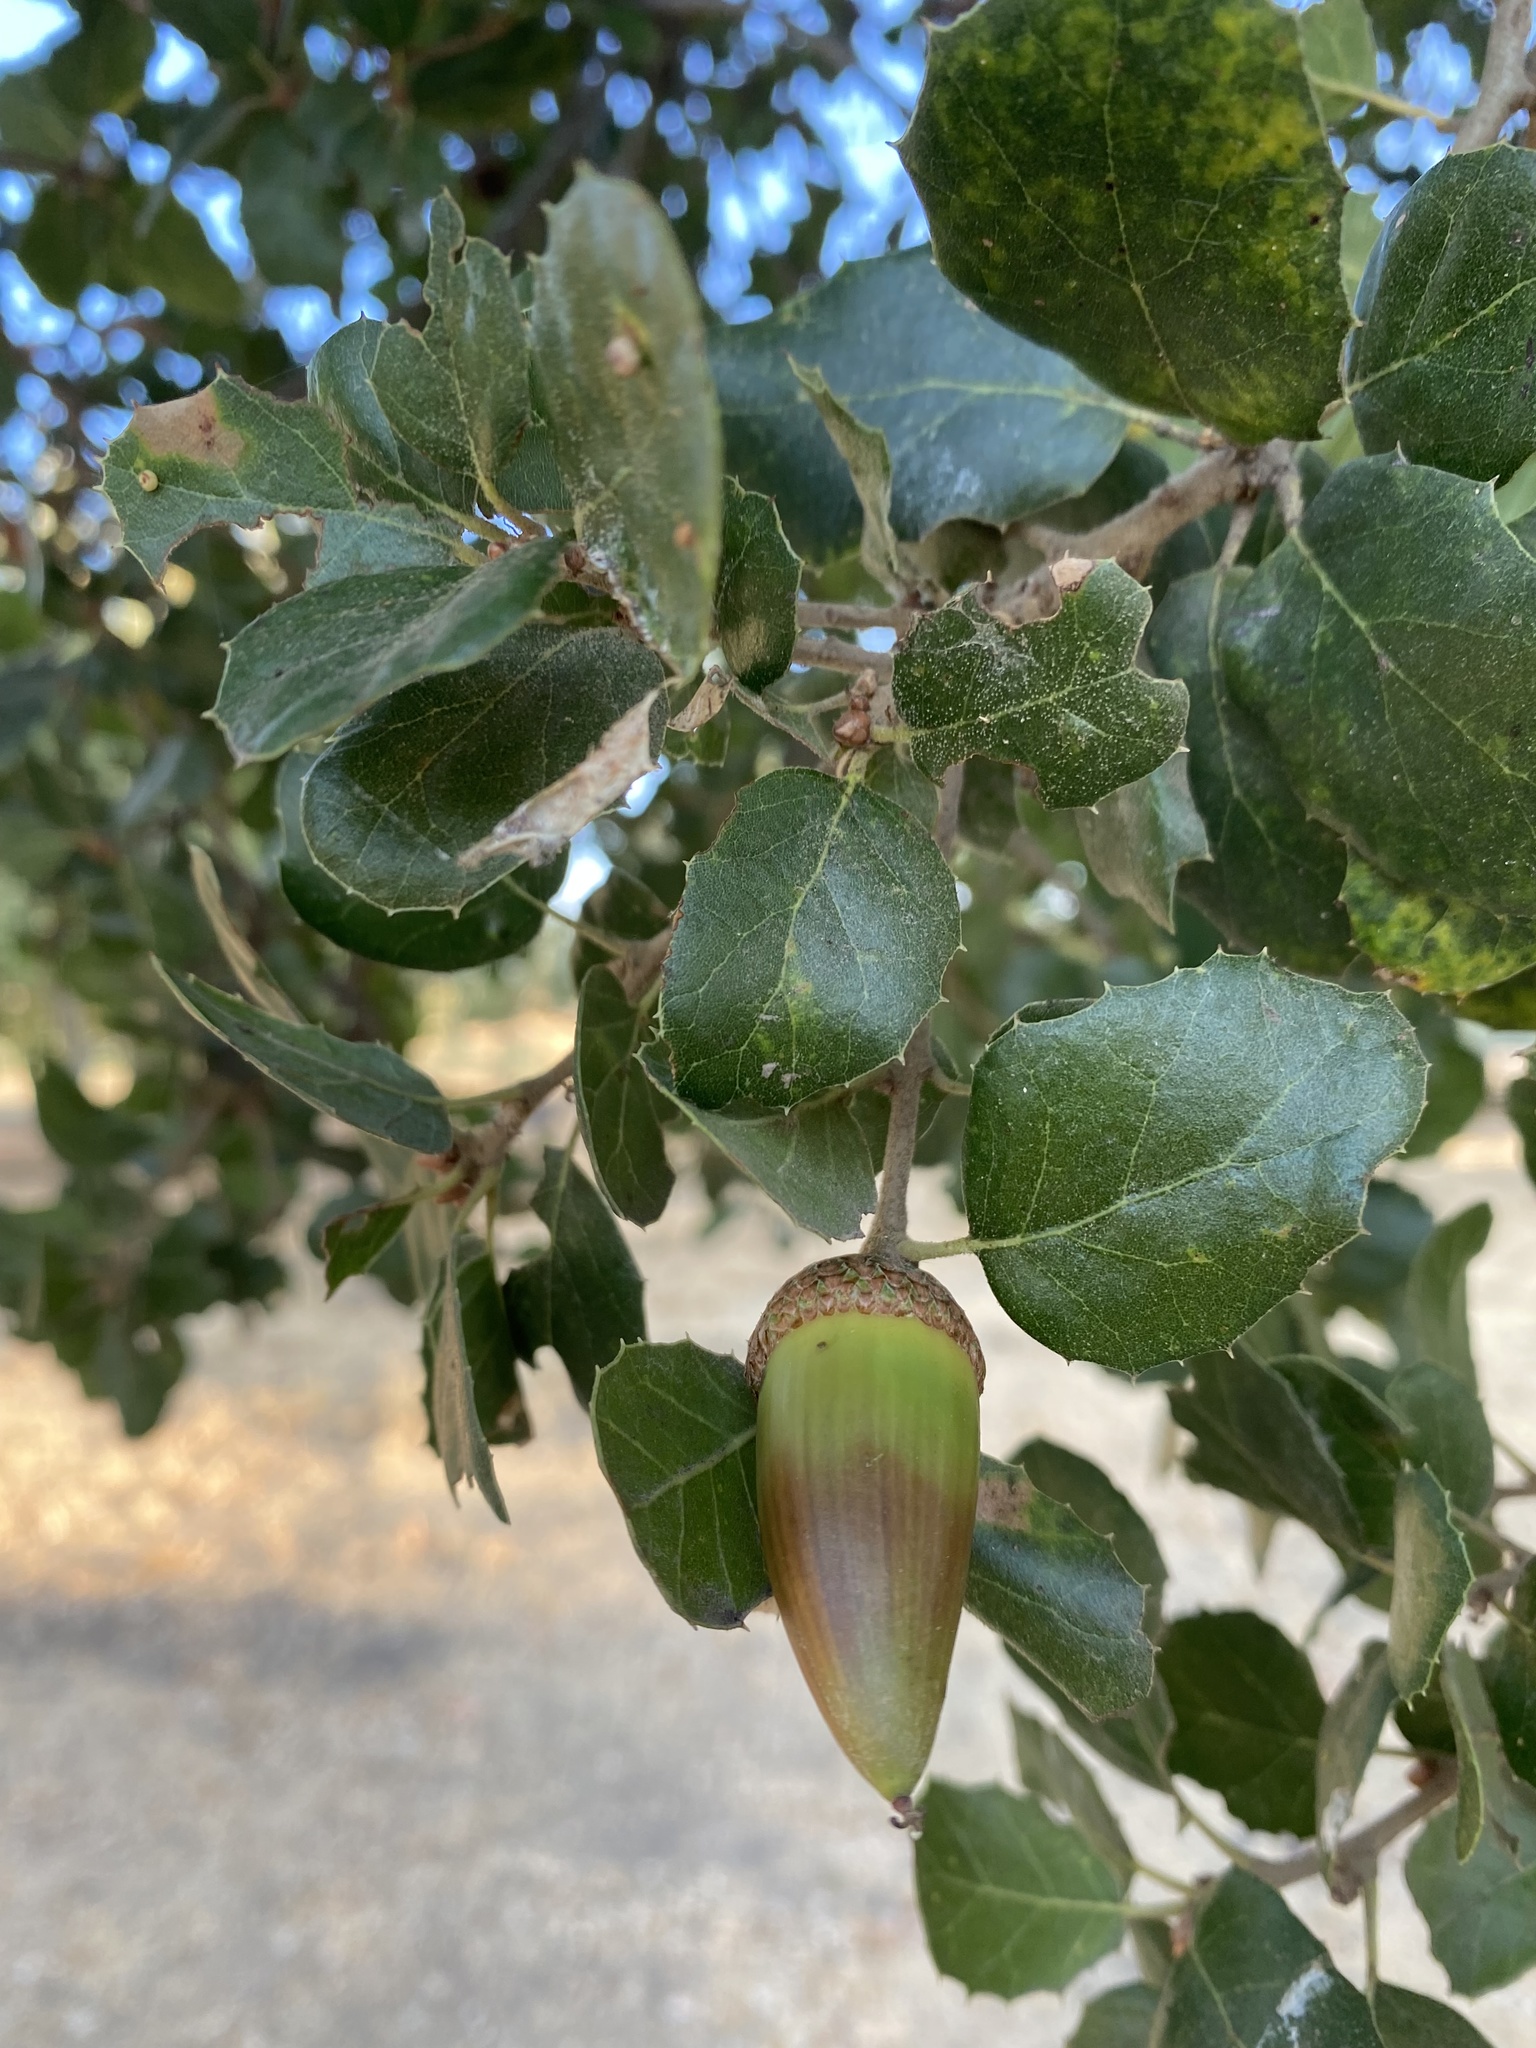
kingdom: Plantae
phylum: Tracheophyta
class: Magnoliopsida
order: Fagales
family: Fagaceae
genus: Quercus
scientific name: Quercus agrifolia
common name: California live oak
